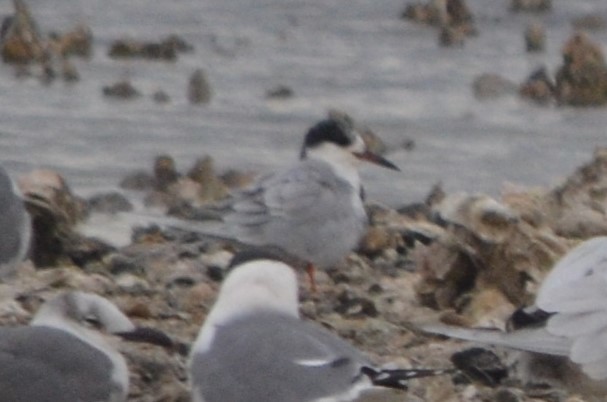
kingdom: Animalia
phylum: Chordata
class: Aves
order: Charadriiformes
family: Laridae
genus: Sterna
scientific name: Sterna forsteri
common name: Forster's tern
